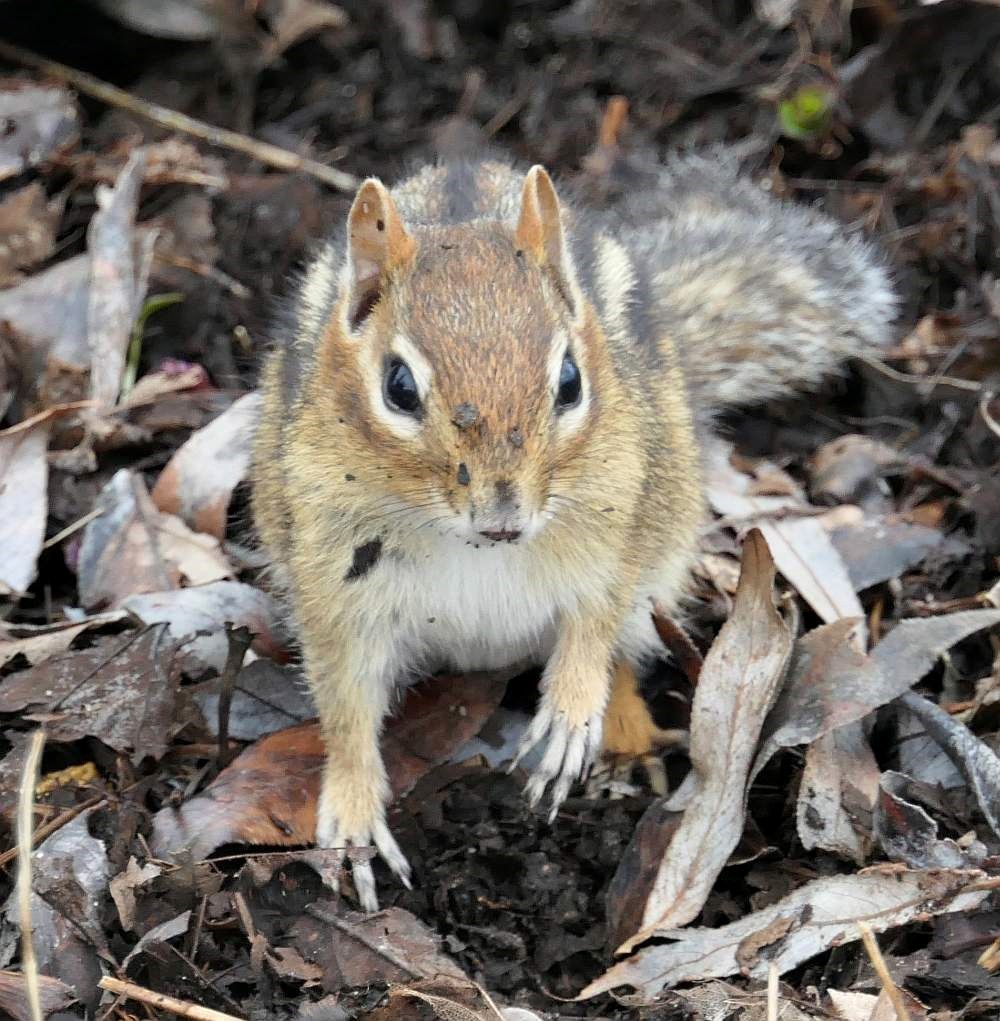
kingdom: Animalia
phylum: Chordata
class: Mammalia
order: Rodentia
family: Sciuridae
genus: Tamias
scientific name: Tamias striatus
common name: Eastern chipmunk
